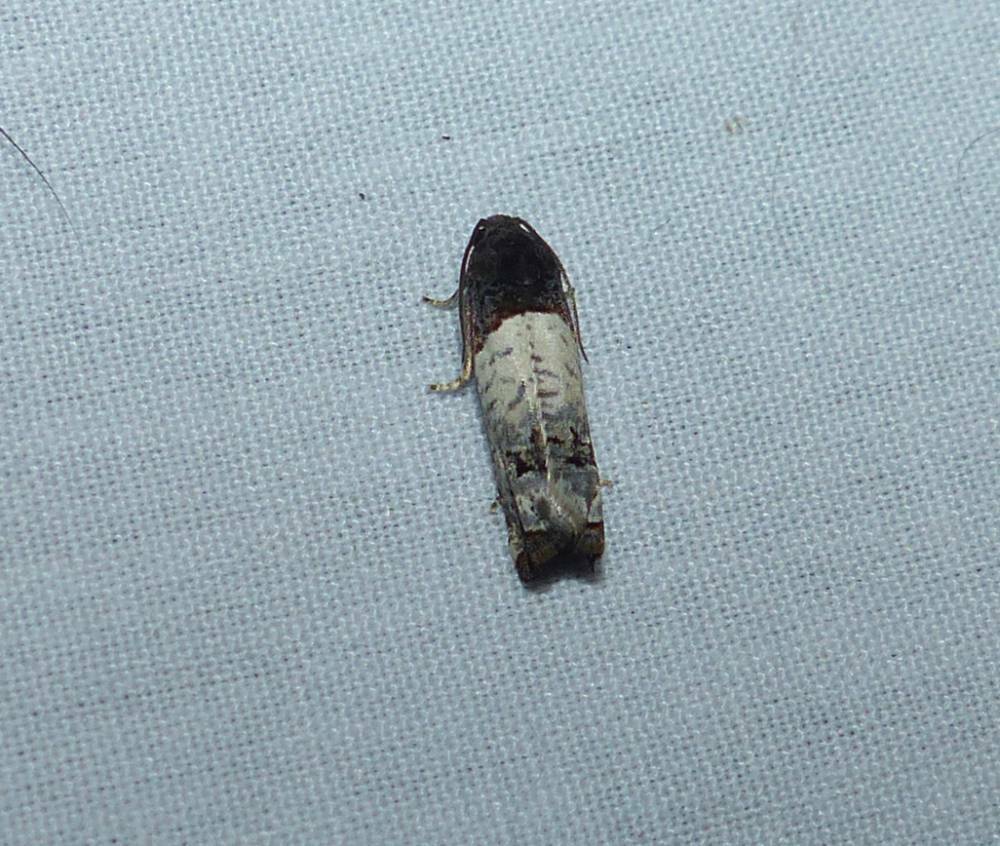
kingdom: Animalia
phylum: Arthropoda
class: Insecta
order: Lepidoptera
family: Tortricidae
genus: Epiblema
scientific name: Epiblema scudderiana
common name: Goldenrod gall moth
